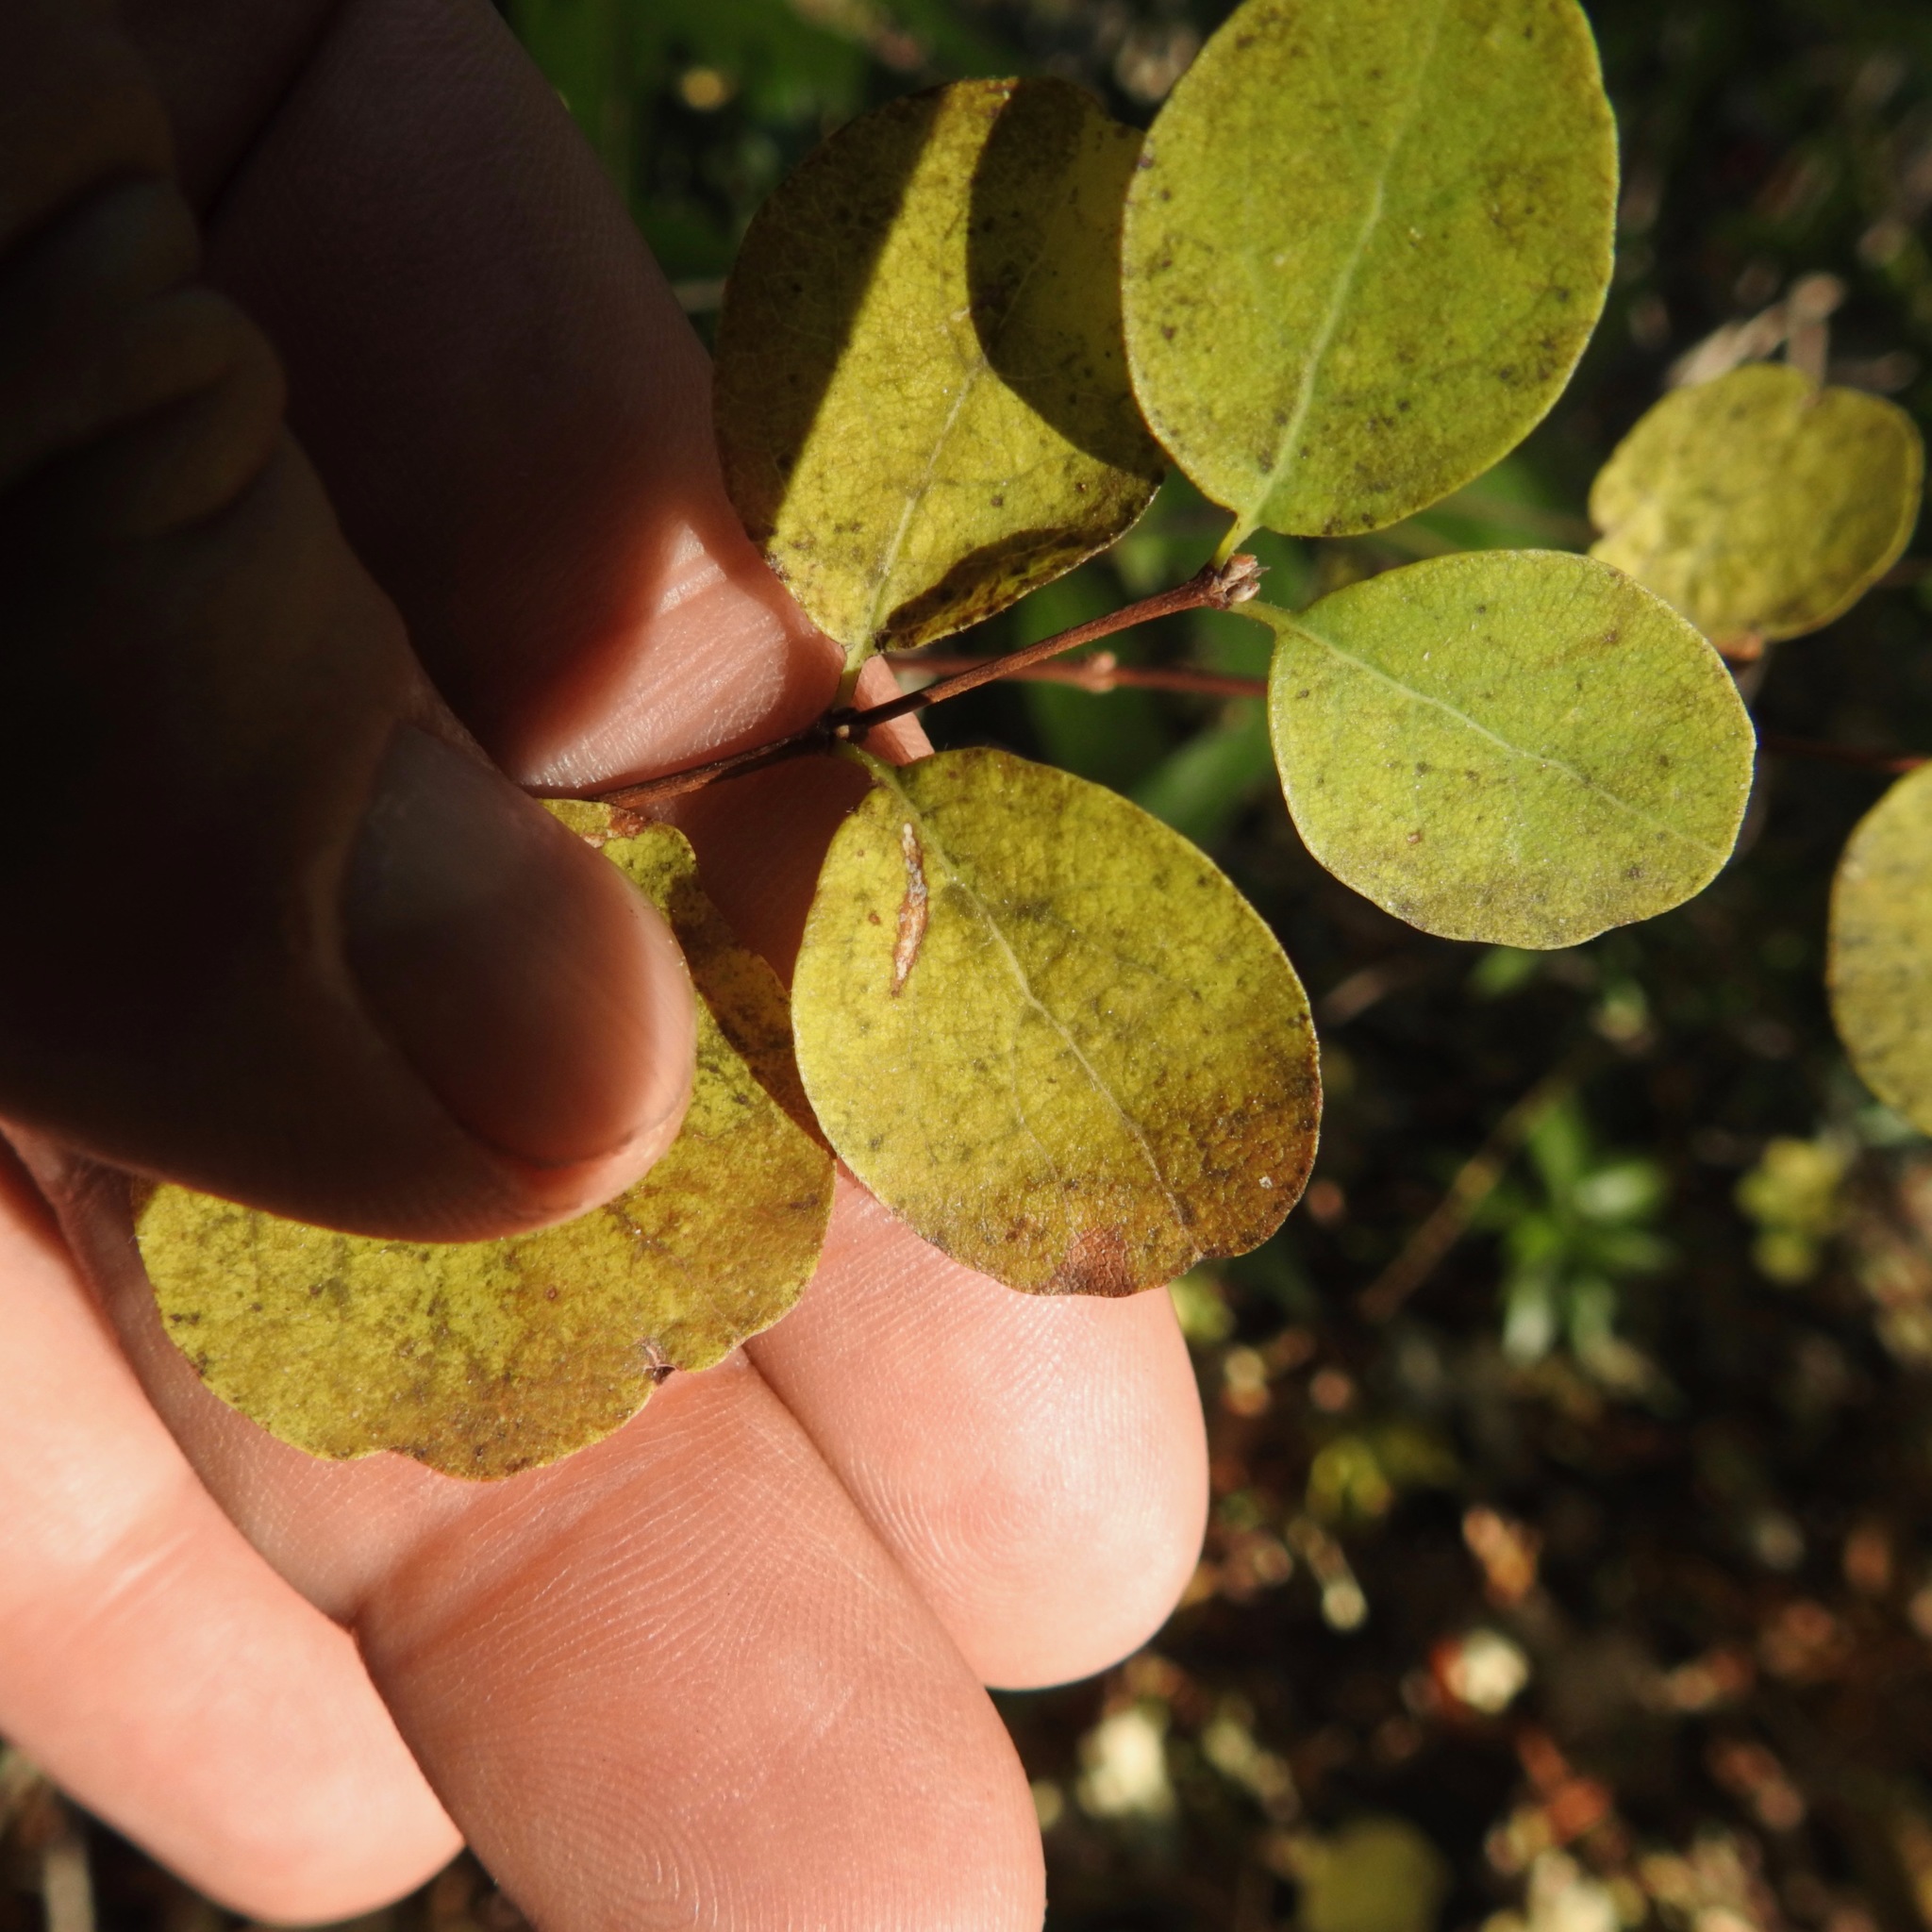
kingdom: Plantae
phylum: Tracheophyta
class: Magnoliopsida
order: Dipsacales
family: Caprifoliaceae
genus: Symphoricarpos
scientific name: Symphoricarpos albus
